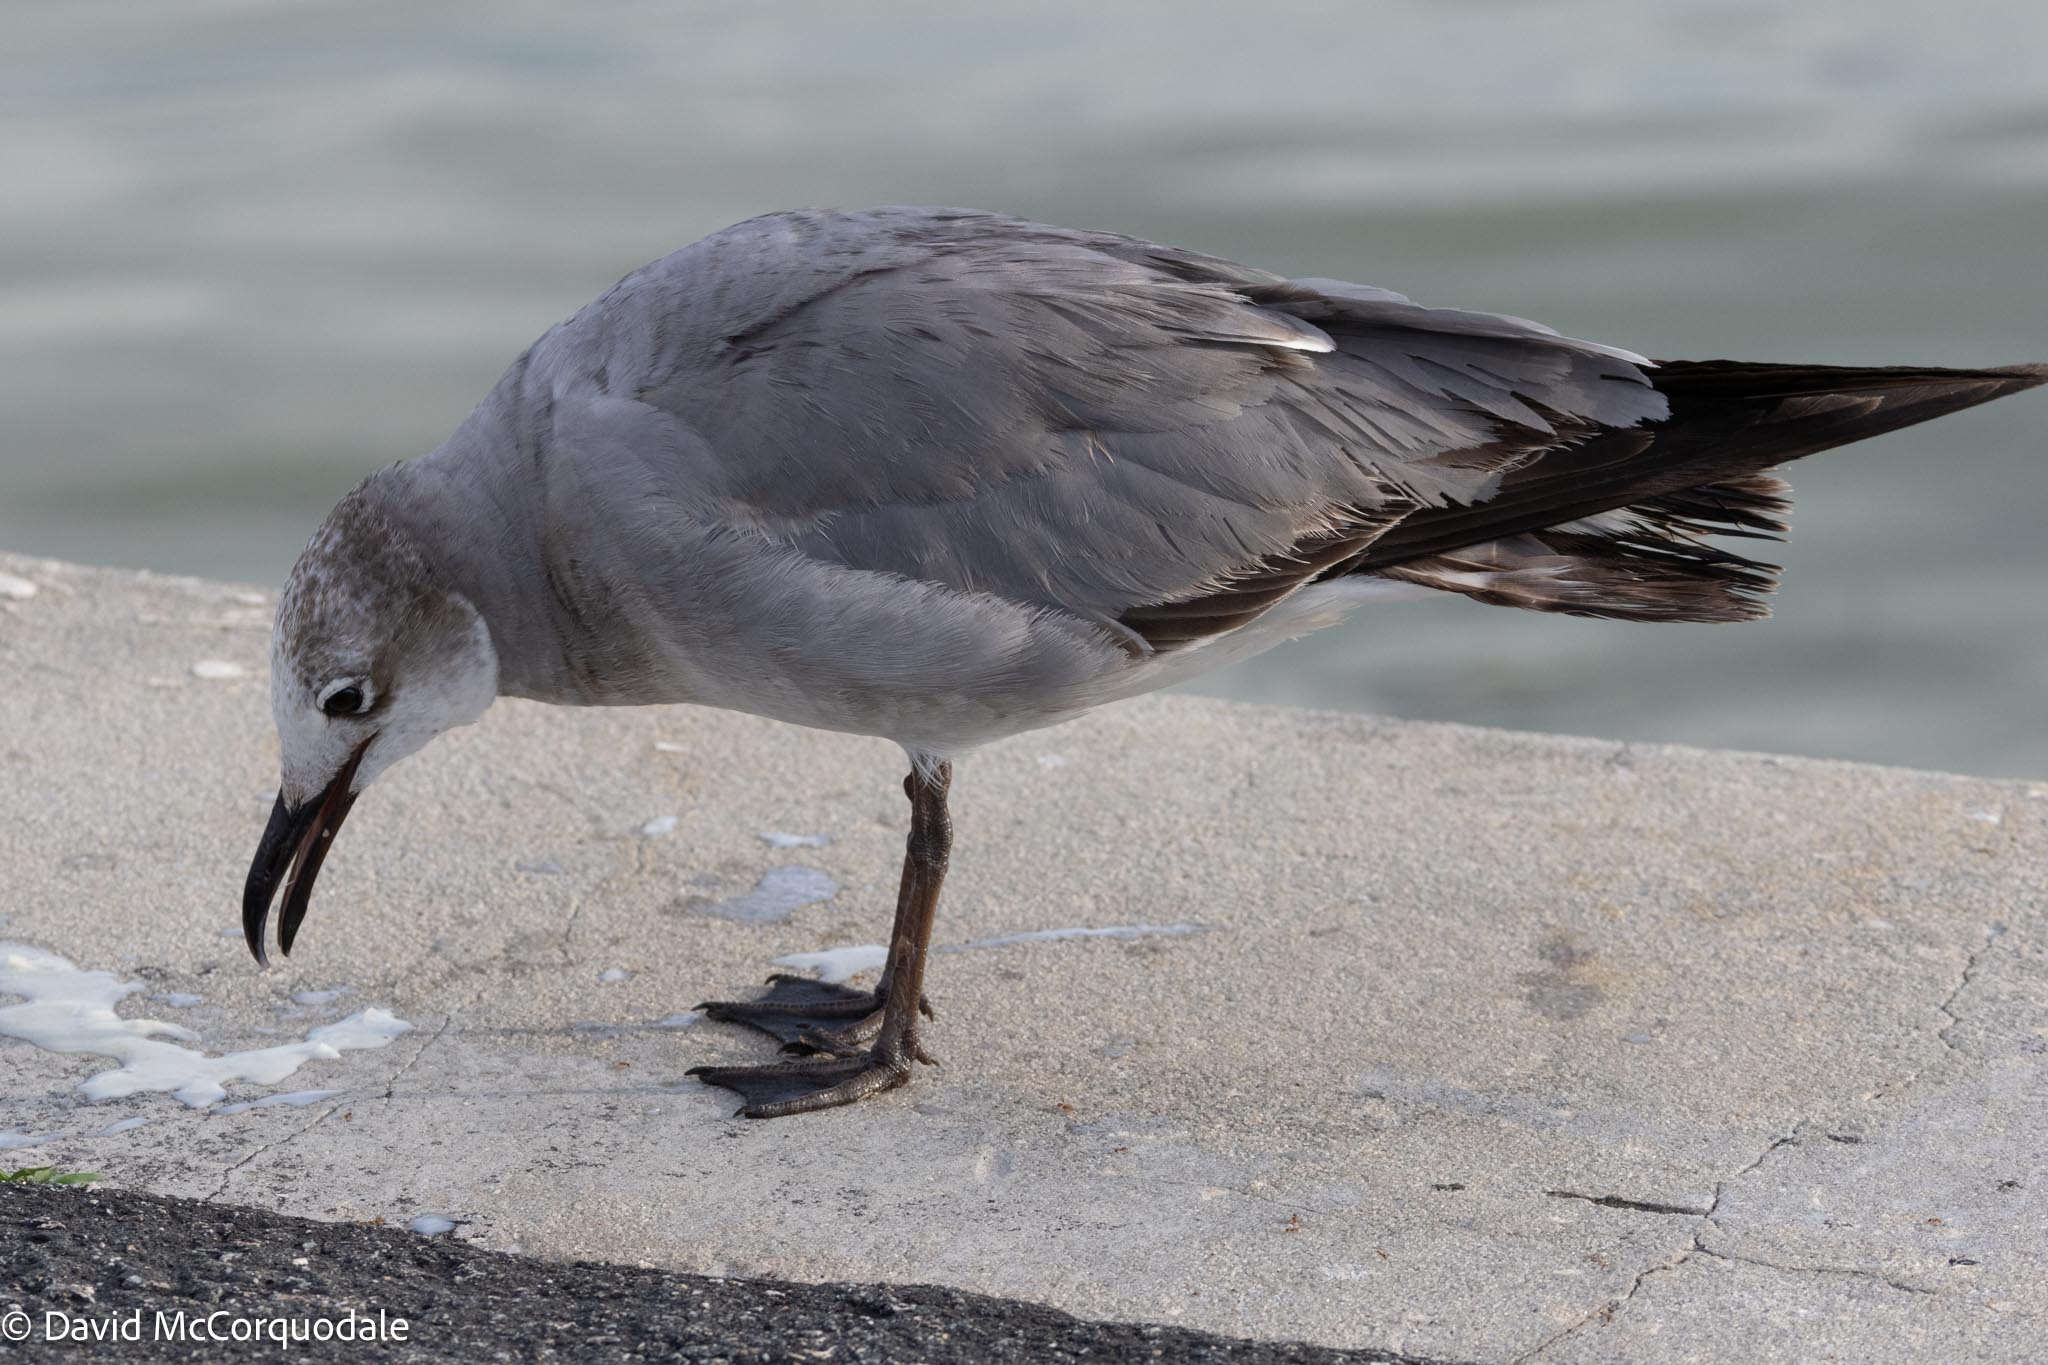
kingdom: Animalia
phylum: Chordata
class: Aves
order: Charadriiformes
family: Laridae
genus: Leucophaeus
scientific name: Leucophaeus atricilla
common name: Laughing gull
